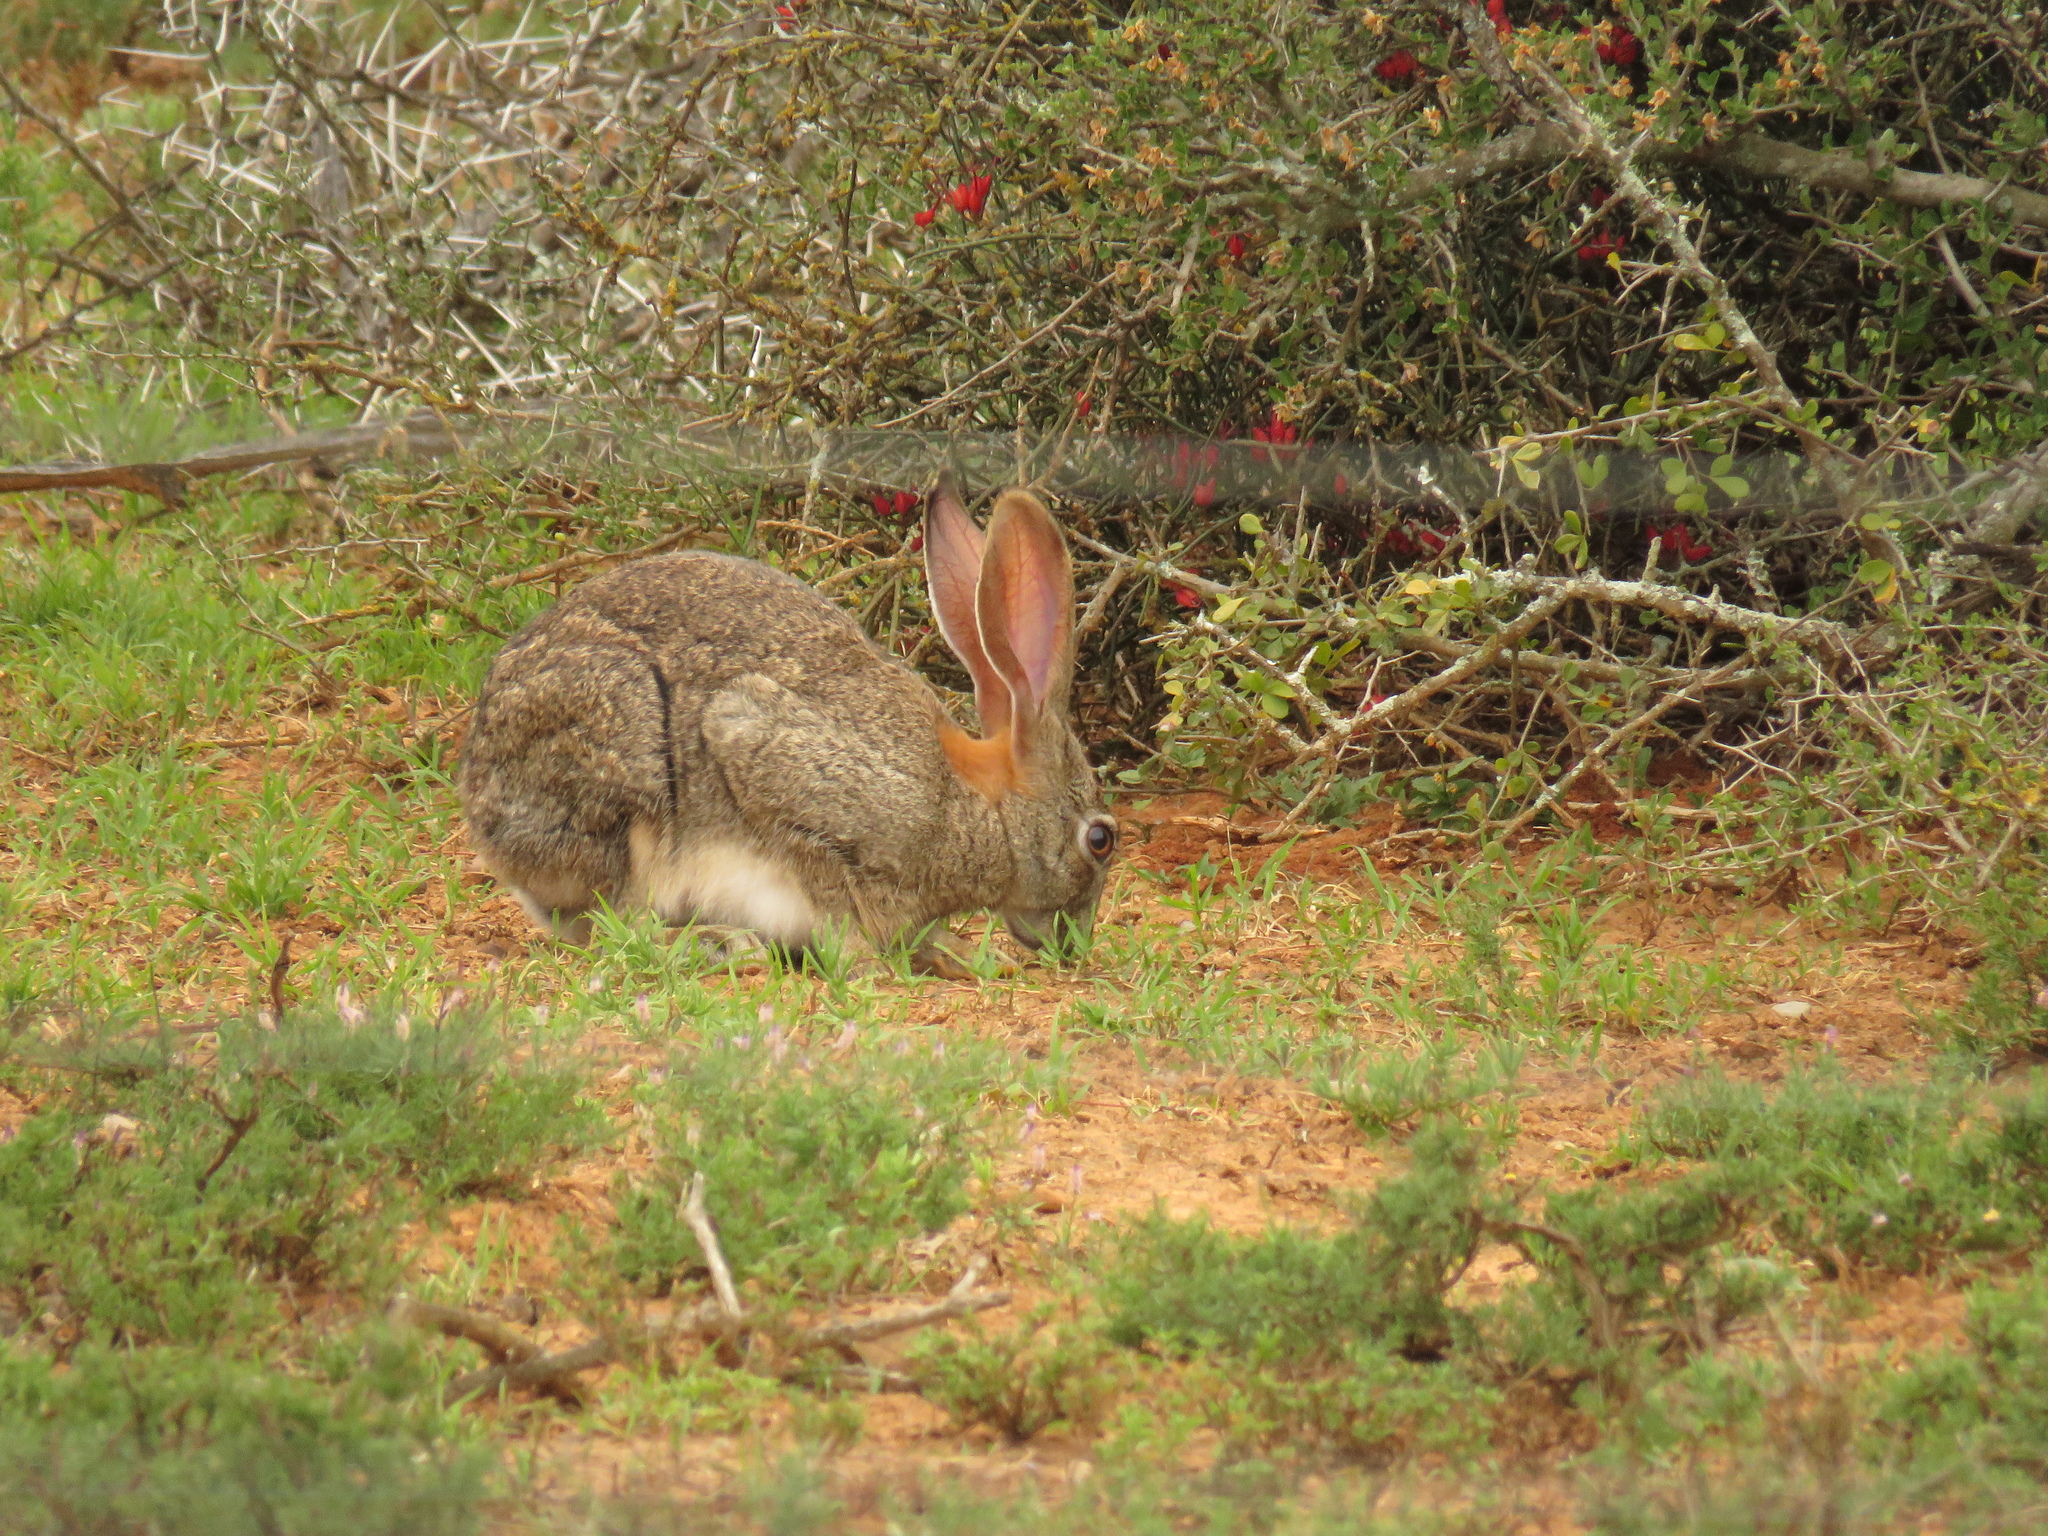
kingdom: Animalia
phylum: Chordata
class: Mammalia
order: Lagomorpha
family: Leporidae
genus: Lepus
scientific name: Lepus saxatilis
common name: Scrub hare
